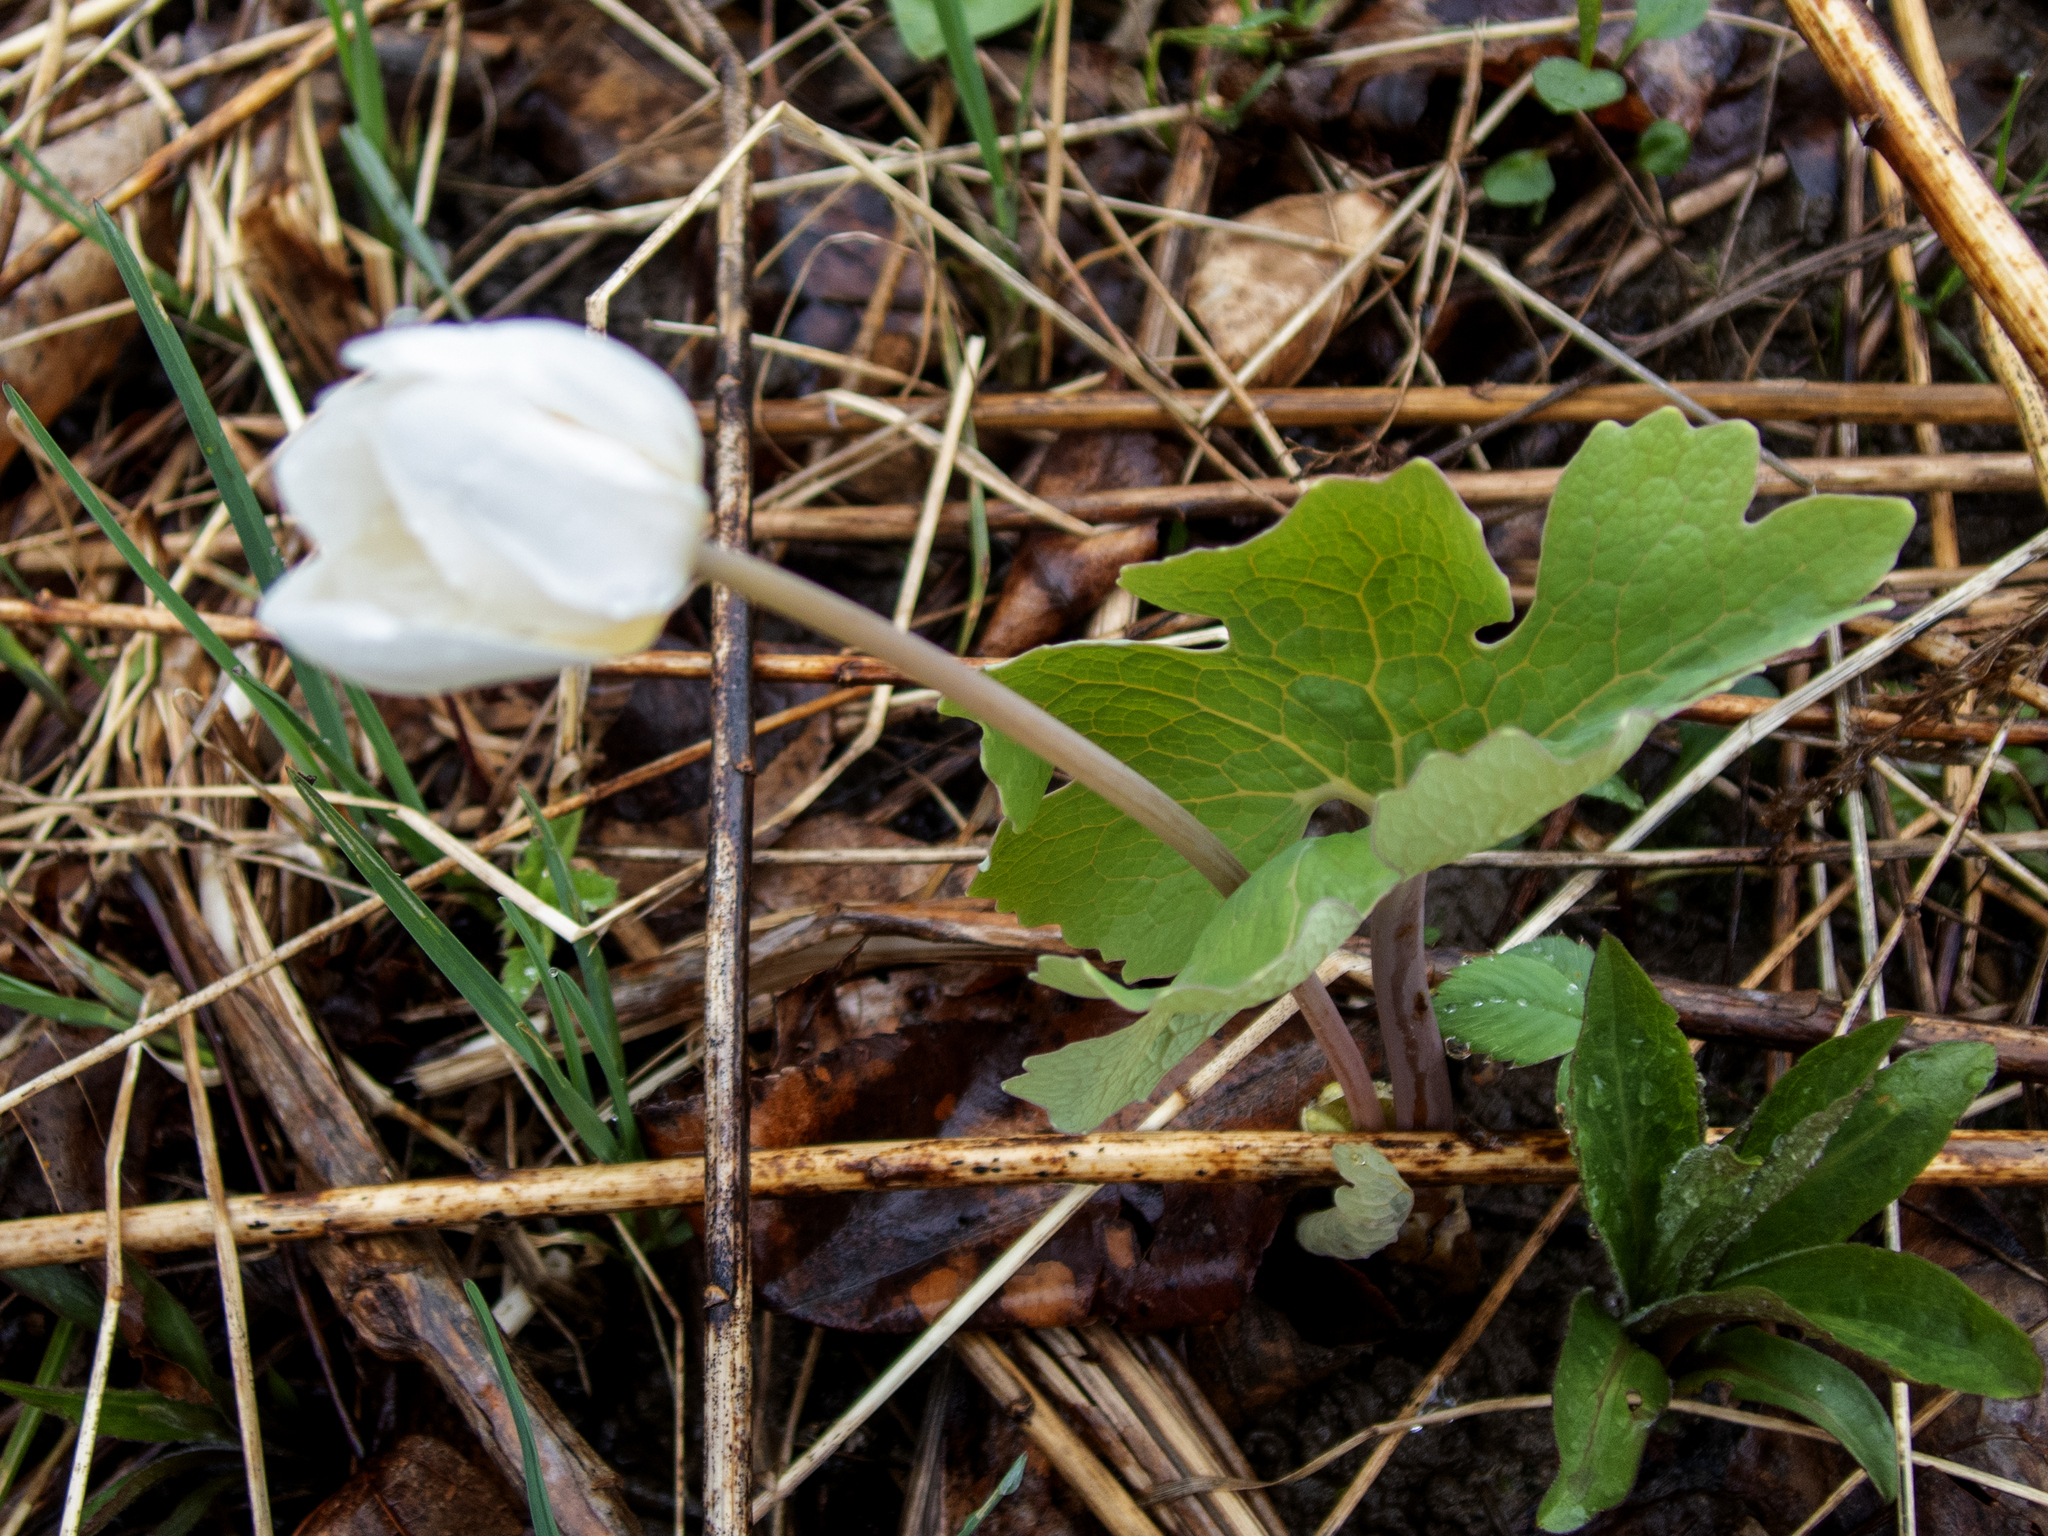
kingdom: Plantae
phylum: Tracheophyta
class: Magnoliopsida
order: Ranunculales
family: Papaveraceae
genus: Sanguinaria
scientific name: Sanguinaria canadensis
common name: Bloodroot
